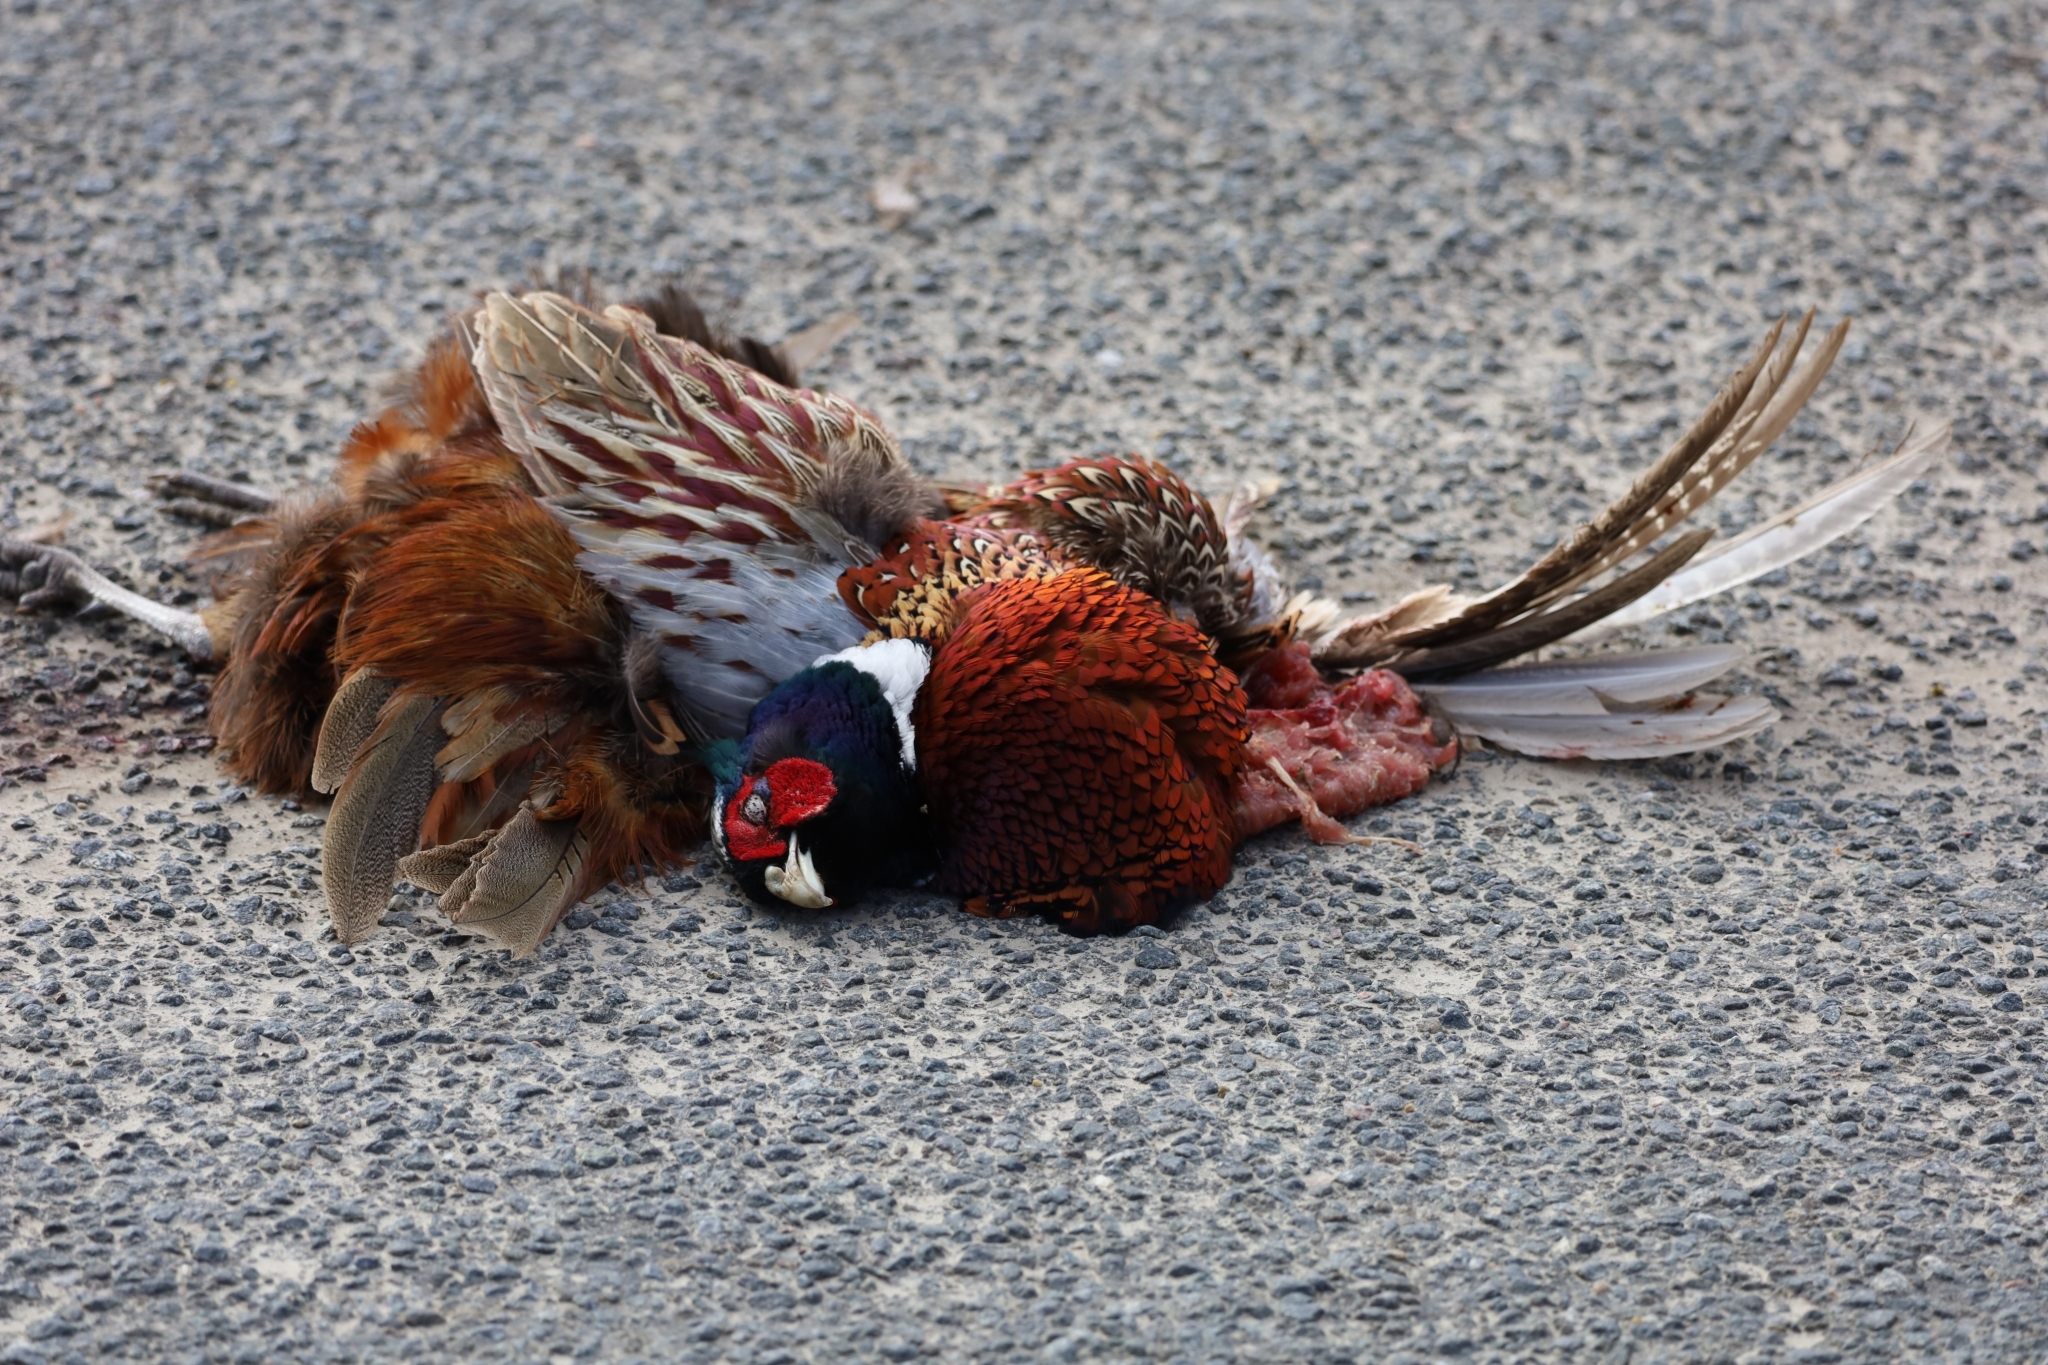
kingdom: Animalia
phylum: Chordata
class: Aves
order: Galliformes
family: Phasianidae
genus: Phasianus
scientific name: Phasianus colchicus
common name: Common pheasant
